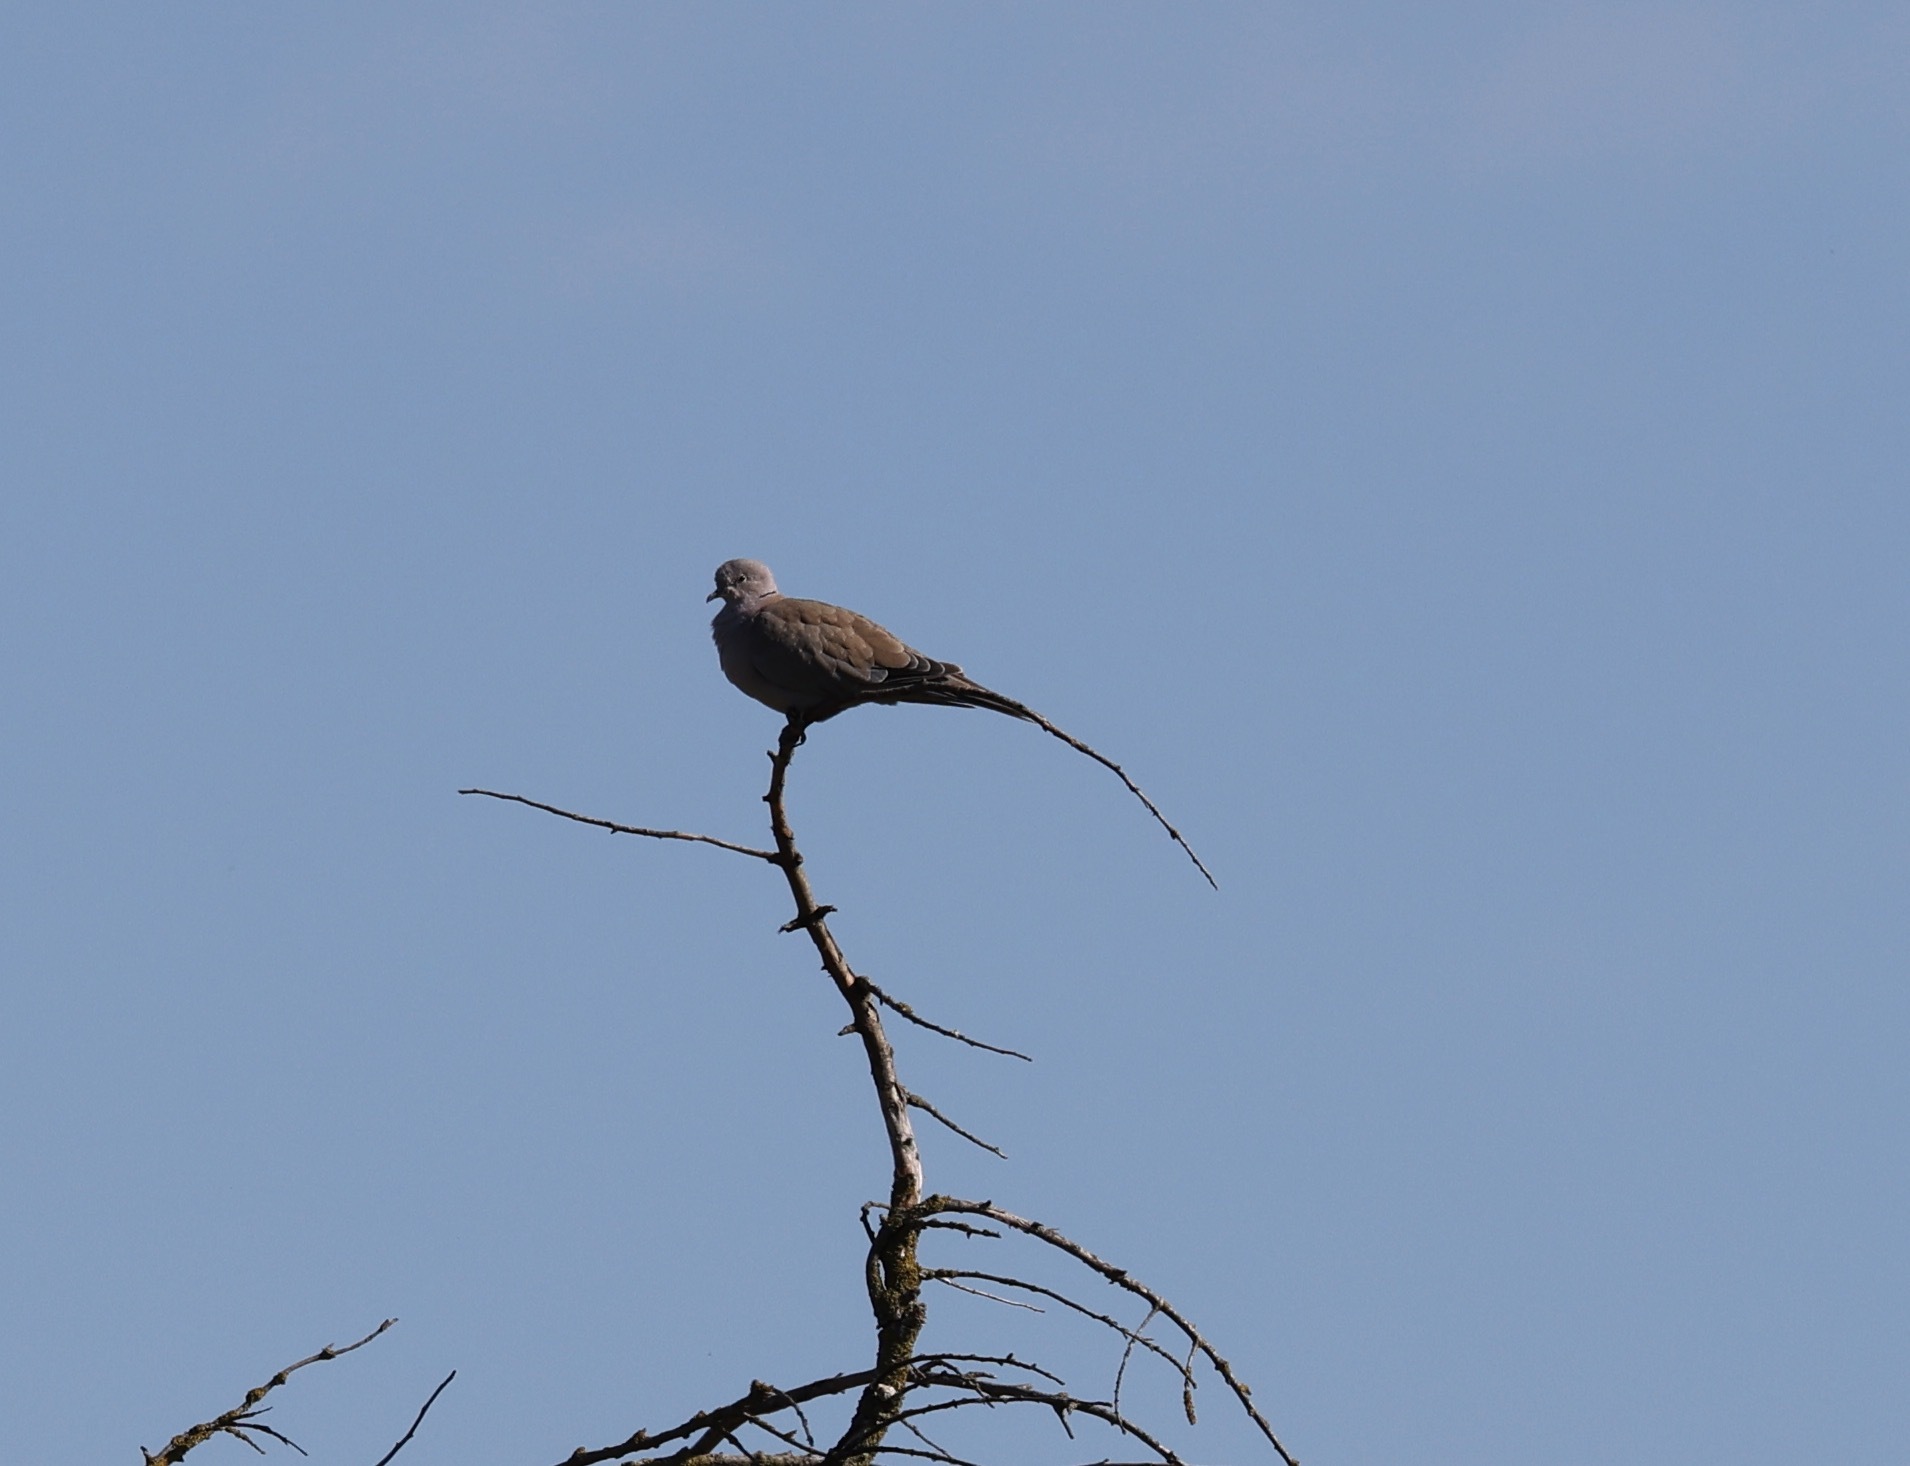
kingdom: Animalia
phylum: Chordata
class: Aves
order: Columbiformes
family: Columbidae
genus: Streptopelia
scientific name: Streptopelia decaocto
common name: Eurasian collared dove
